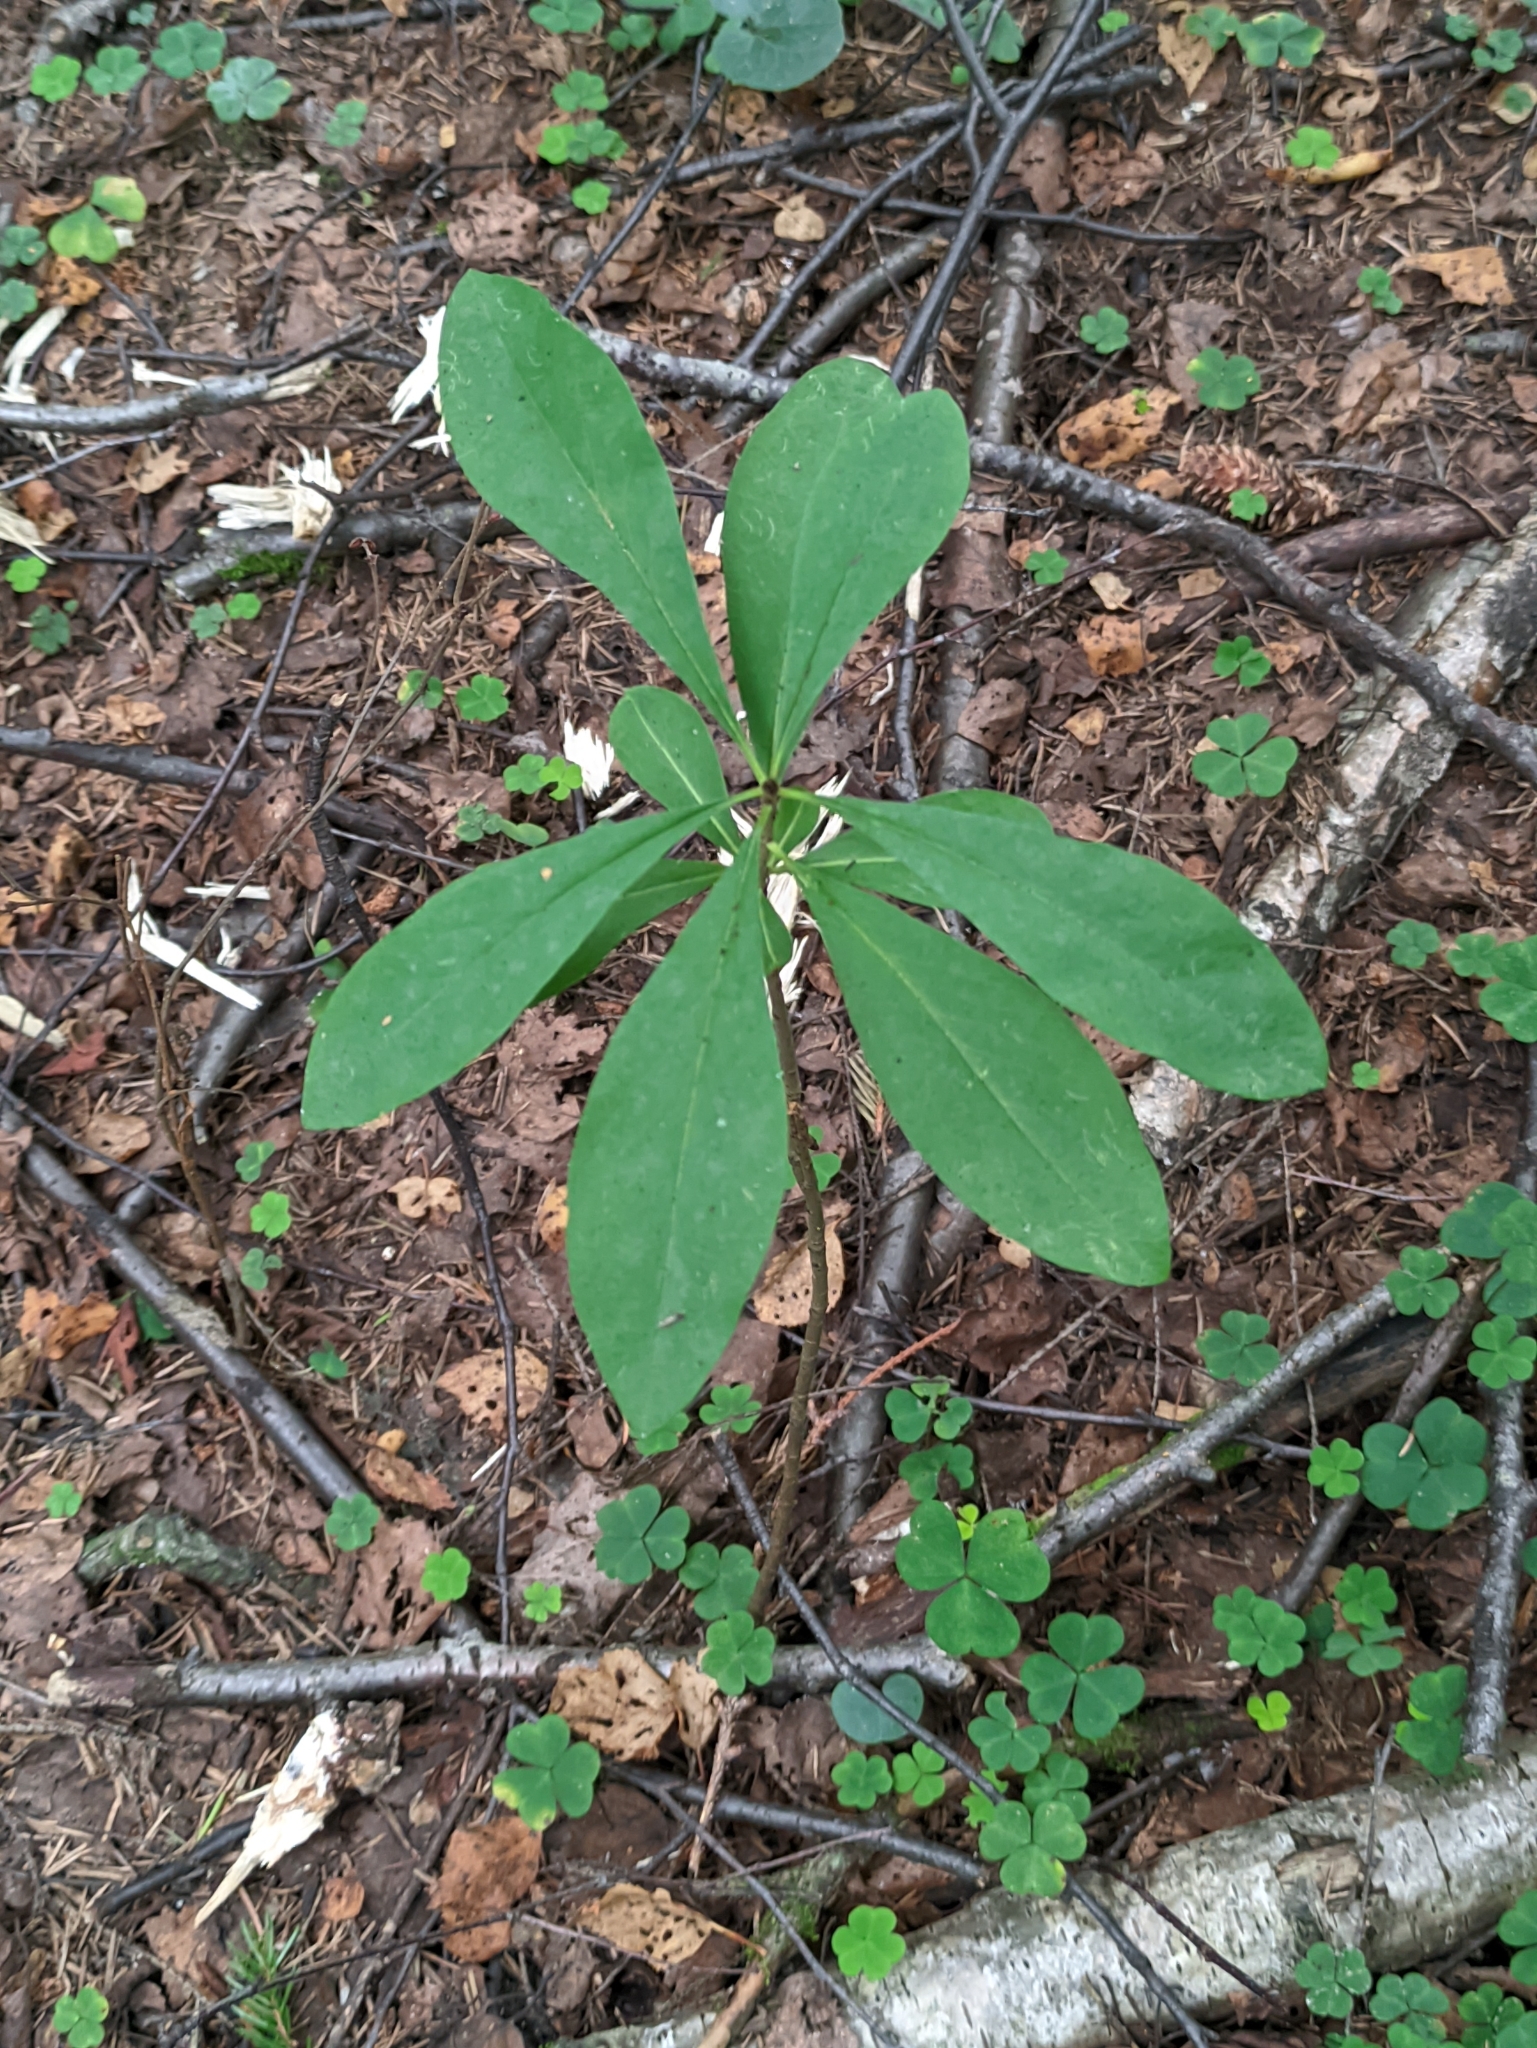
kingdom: Plantae
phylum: Tracheophyta
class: Magnoliopsida
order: Malvales
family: Thymelaeaceae
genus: Daphne
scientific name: Daphne mezereum
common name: Mezereon
